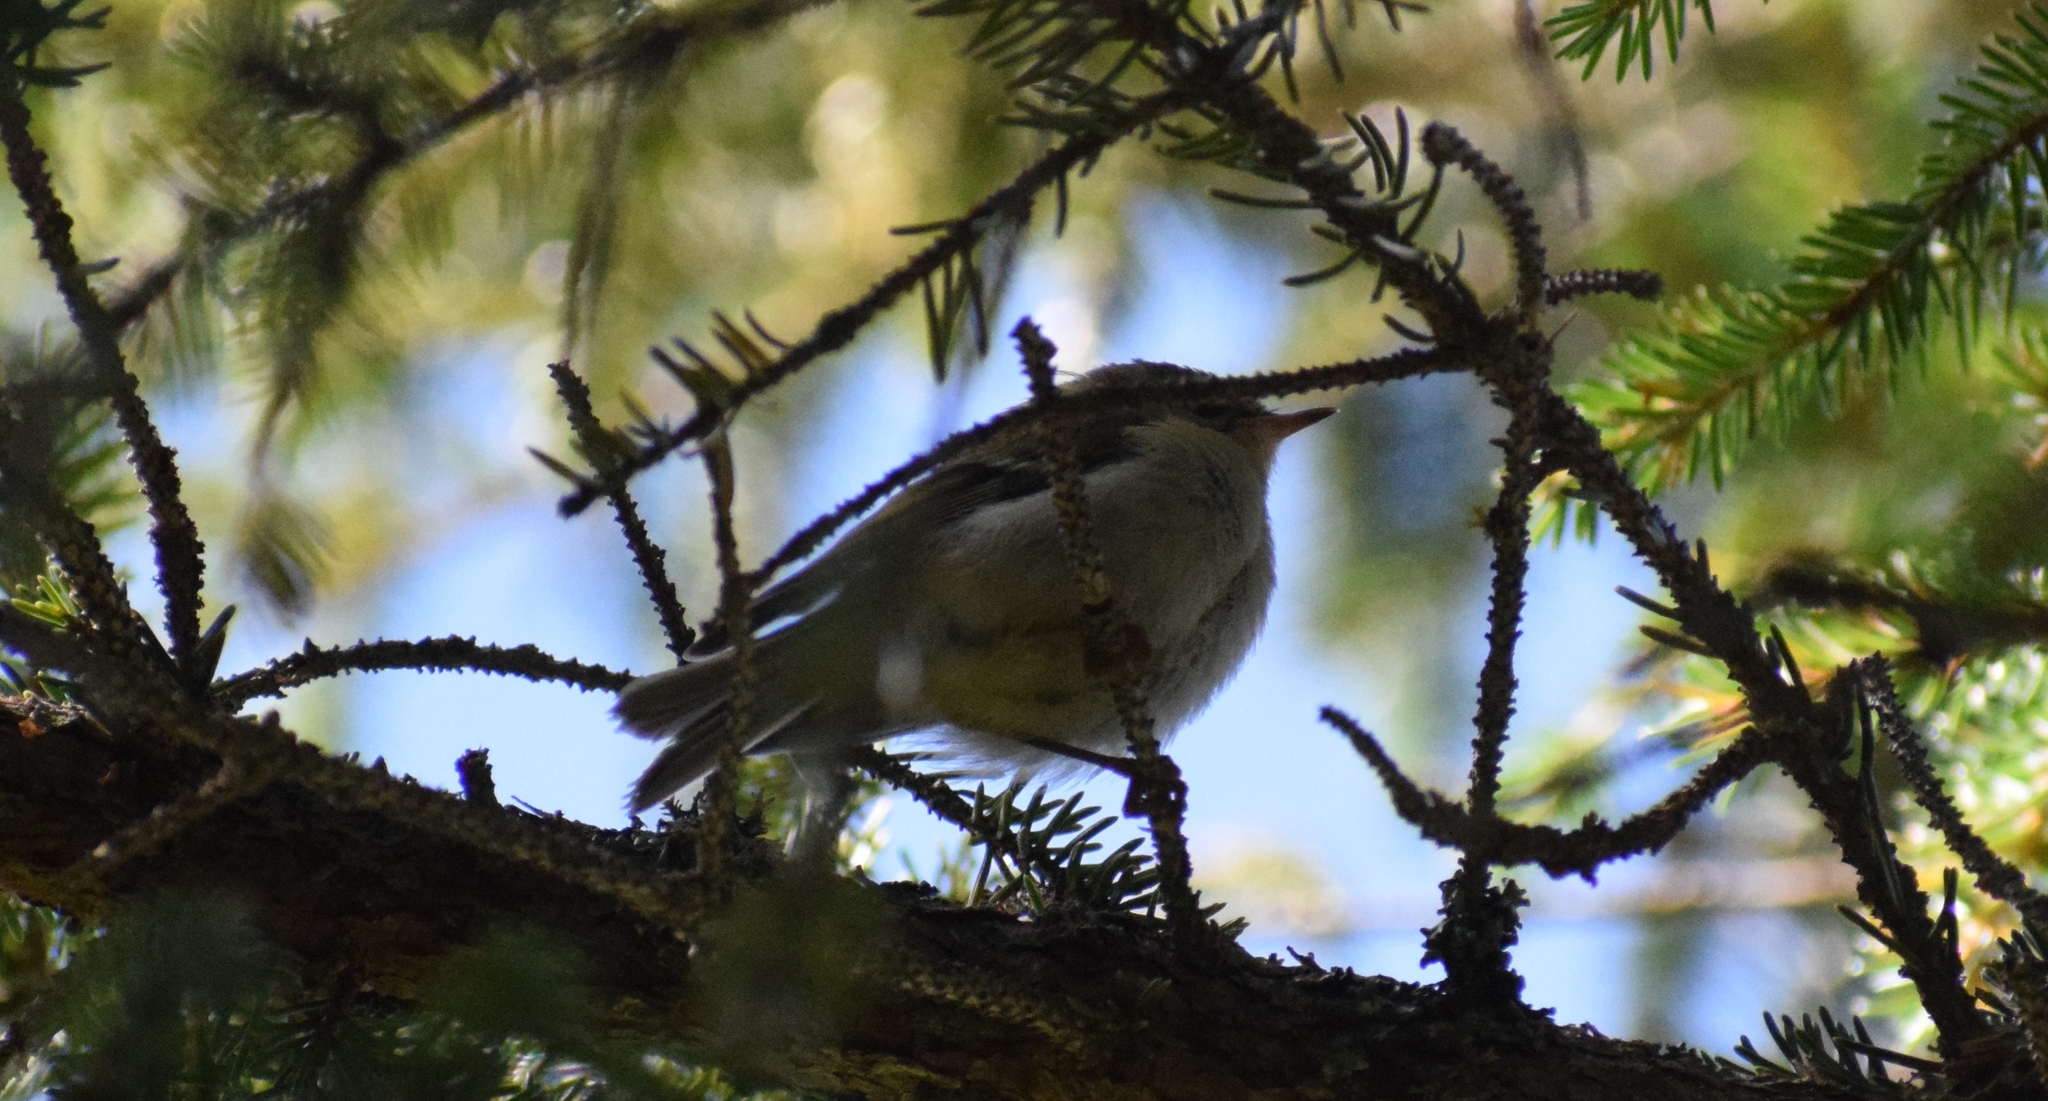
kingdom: Animalia
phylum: Chordata
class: Aves
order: Passeriformes
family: Regulidae
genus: Regulus
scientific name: Regulus ignicapilla
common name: Firecrest
